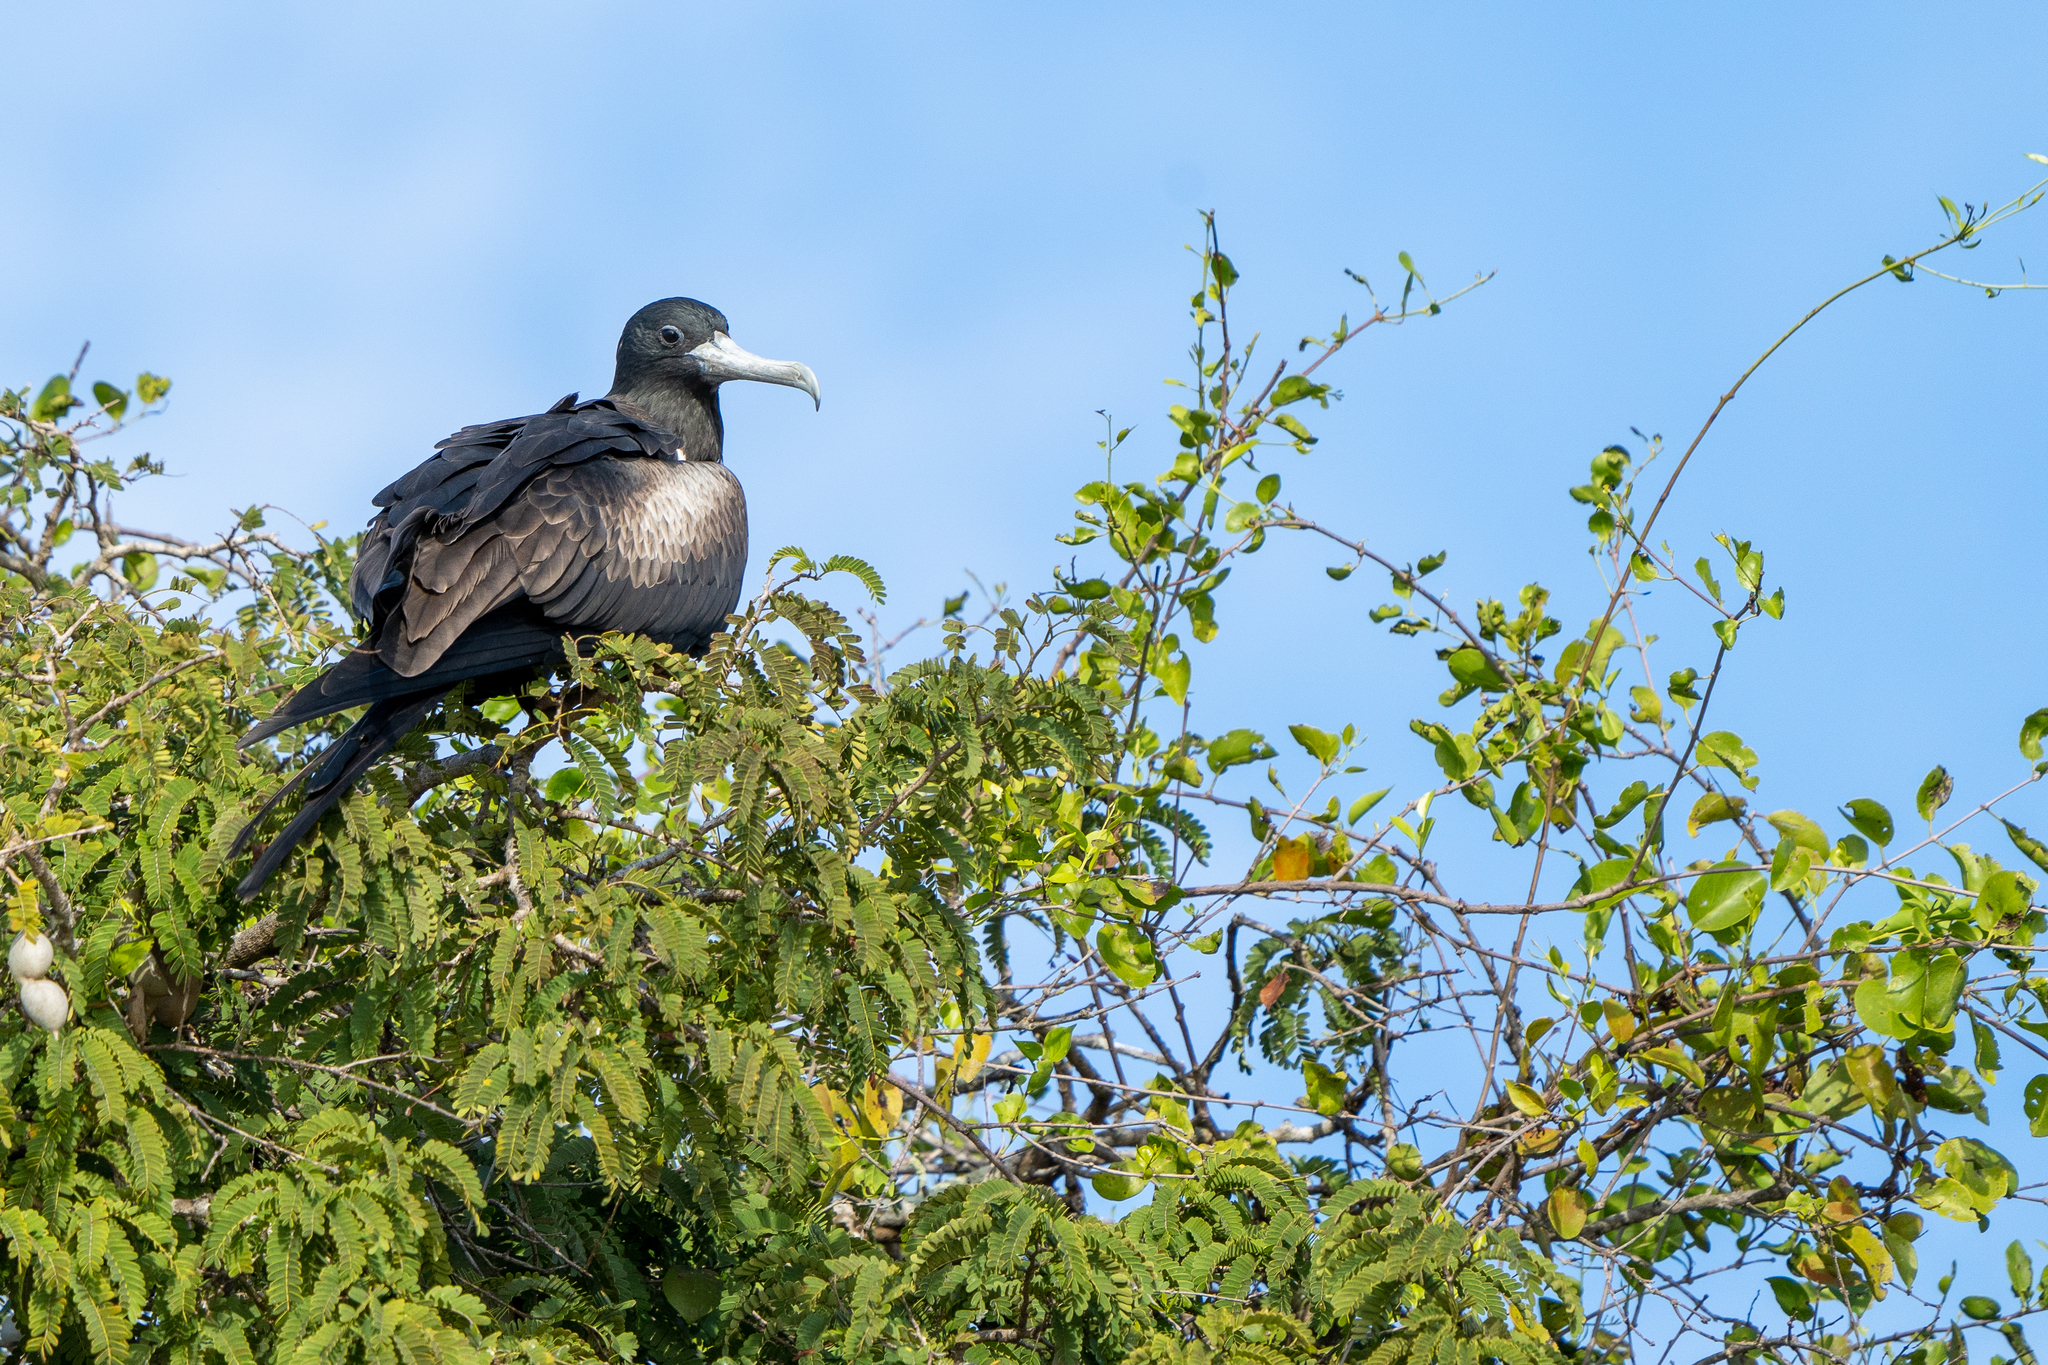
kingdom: Animalia
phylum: Chordata
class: Aves
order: Suliformes
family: Fregatidae
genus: Fregata
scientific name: Fregata magnificens
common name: Magnificent frigatebird
